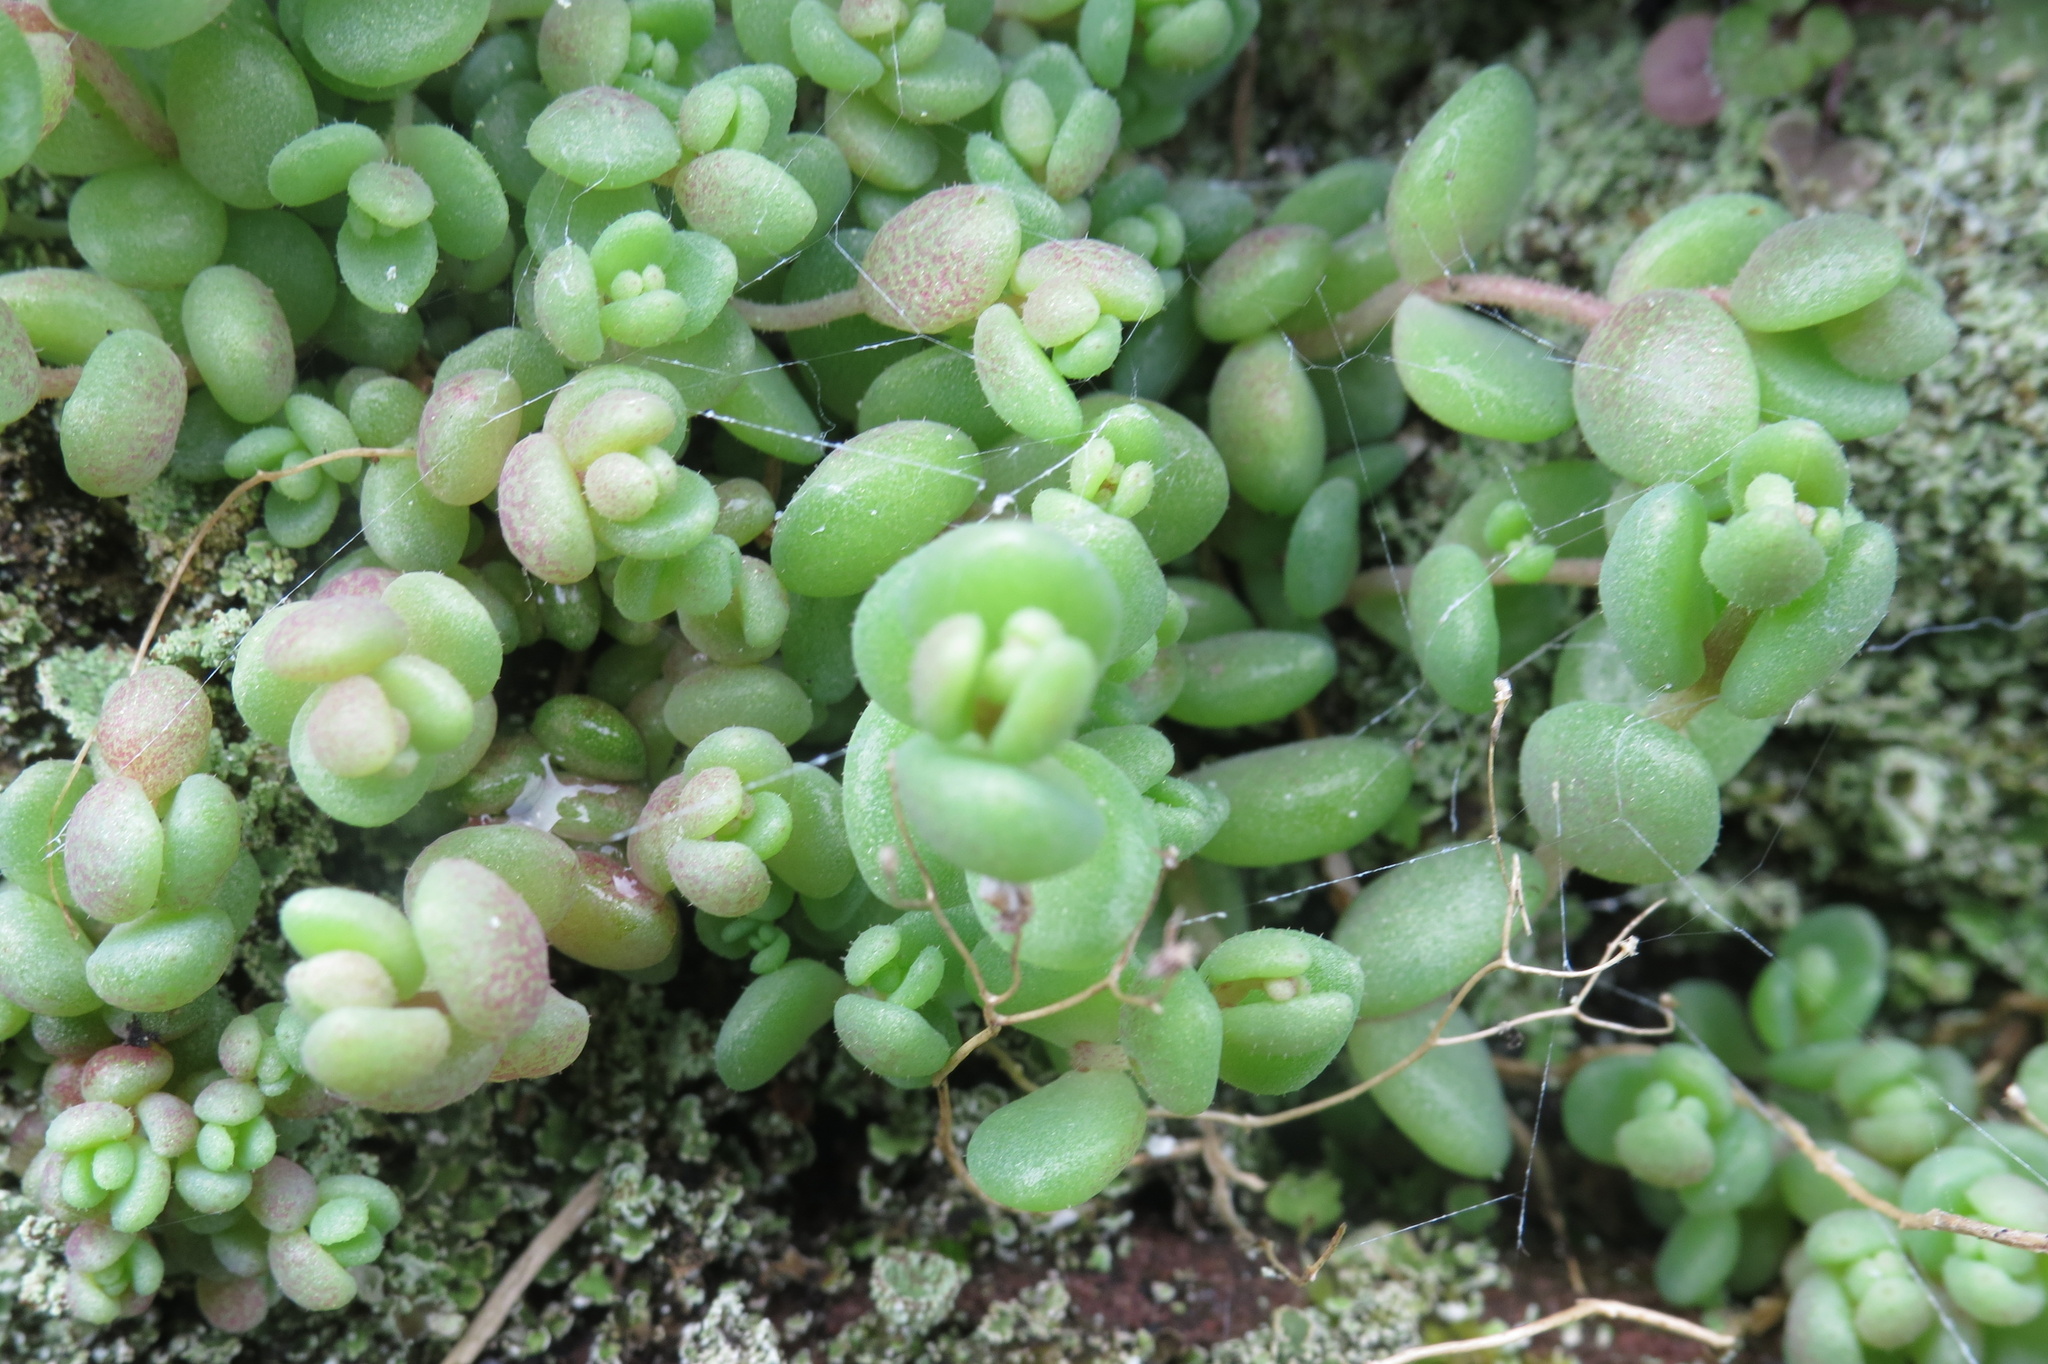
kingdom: Plantae
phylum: Tracheophyta
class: Magnoliopsida
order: Saxifragales
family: Crassulaceae
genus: Sedum
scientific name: Sedum dasyphyllum
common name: Thick-leaf stonecrop
